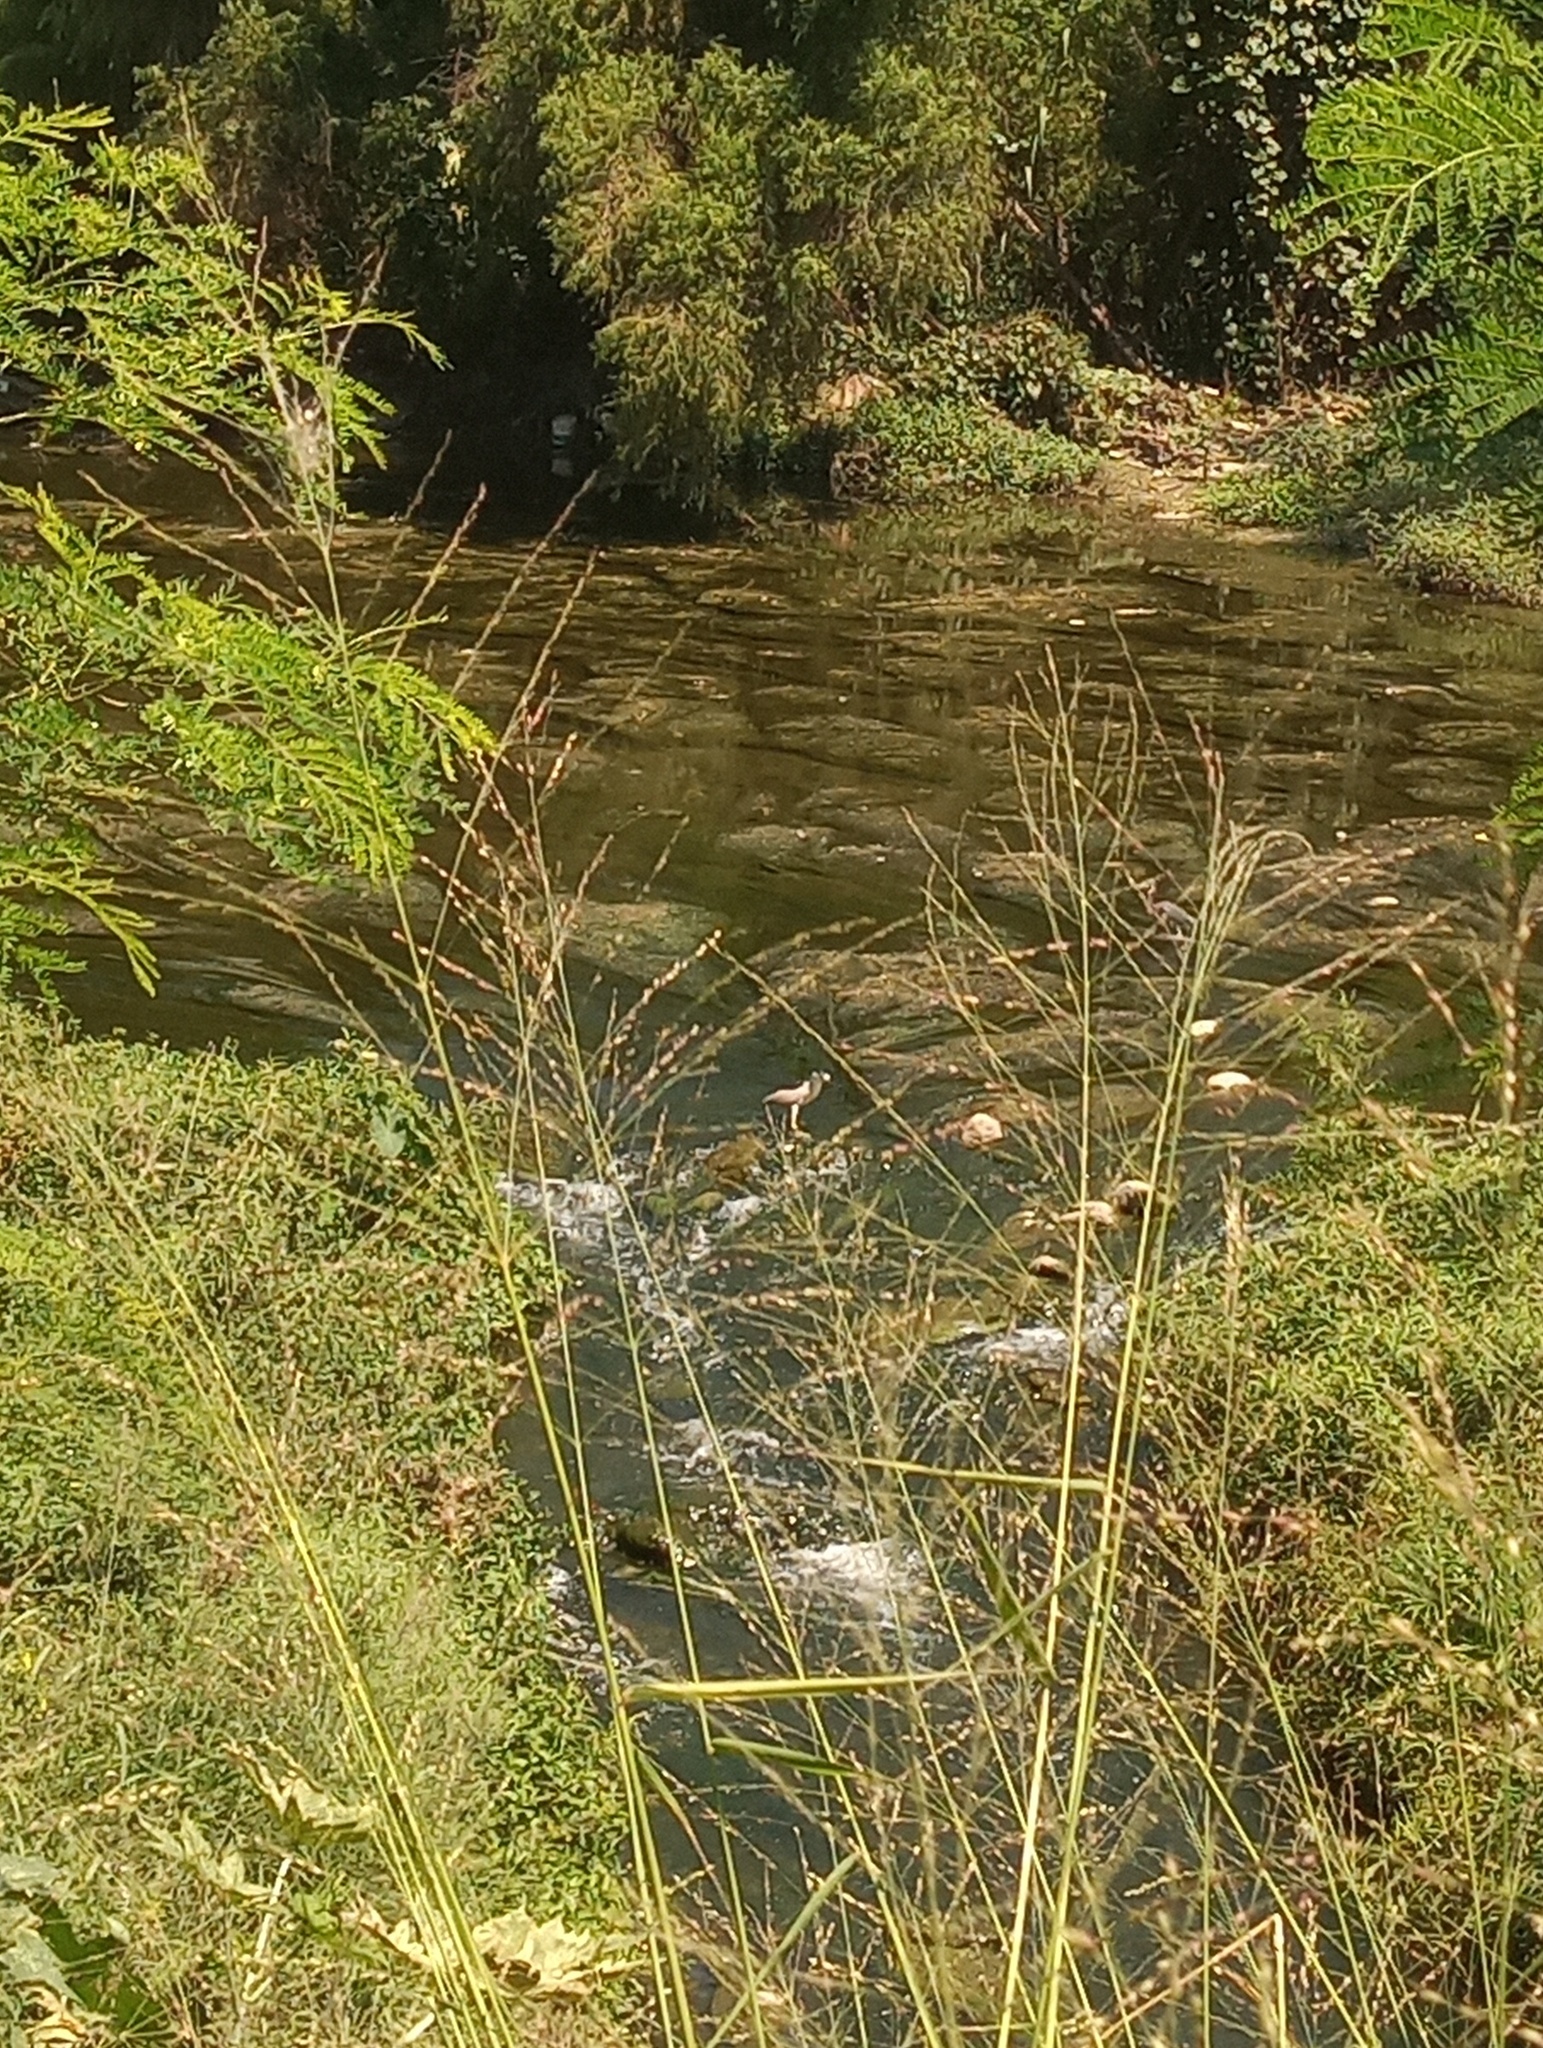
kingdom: Animalia
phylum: Chordata
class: Aves
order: Pelecaniformes
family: Ardeidae
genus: Nycticorax
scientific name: Nycticorax nycticorax
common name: Black-crowned night heron
